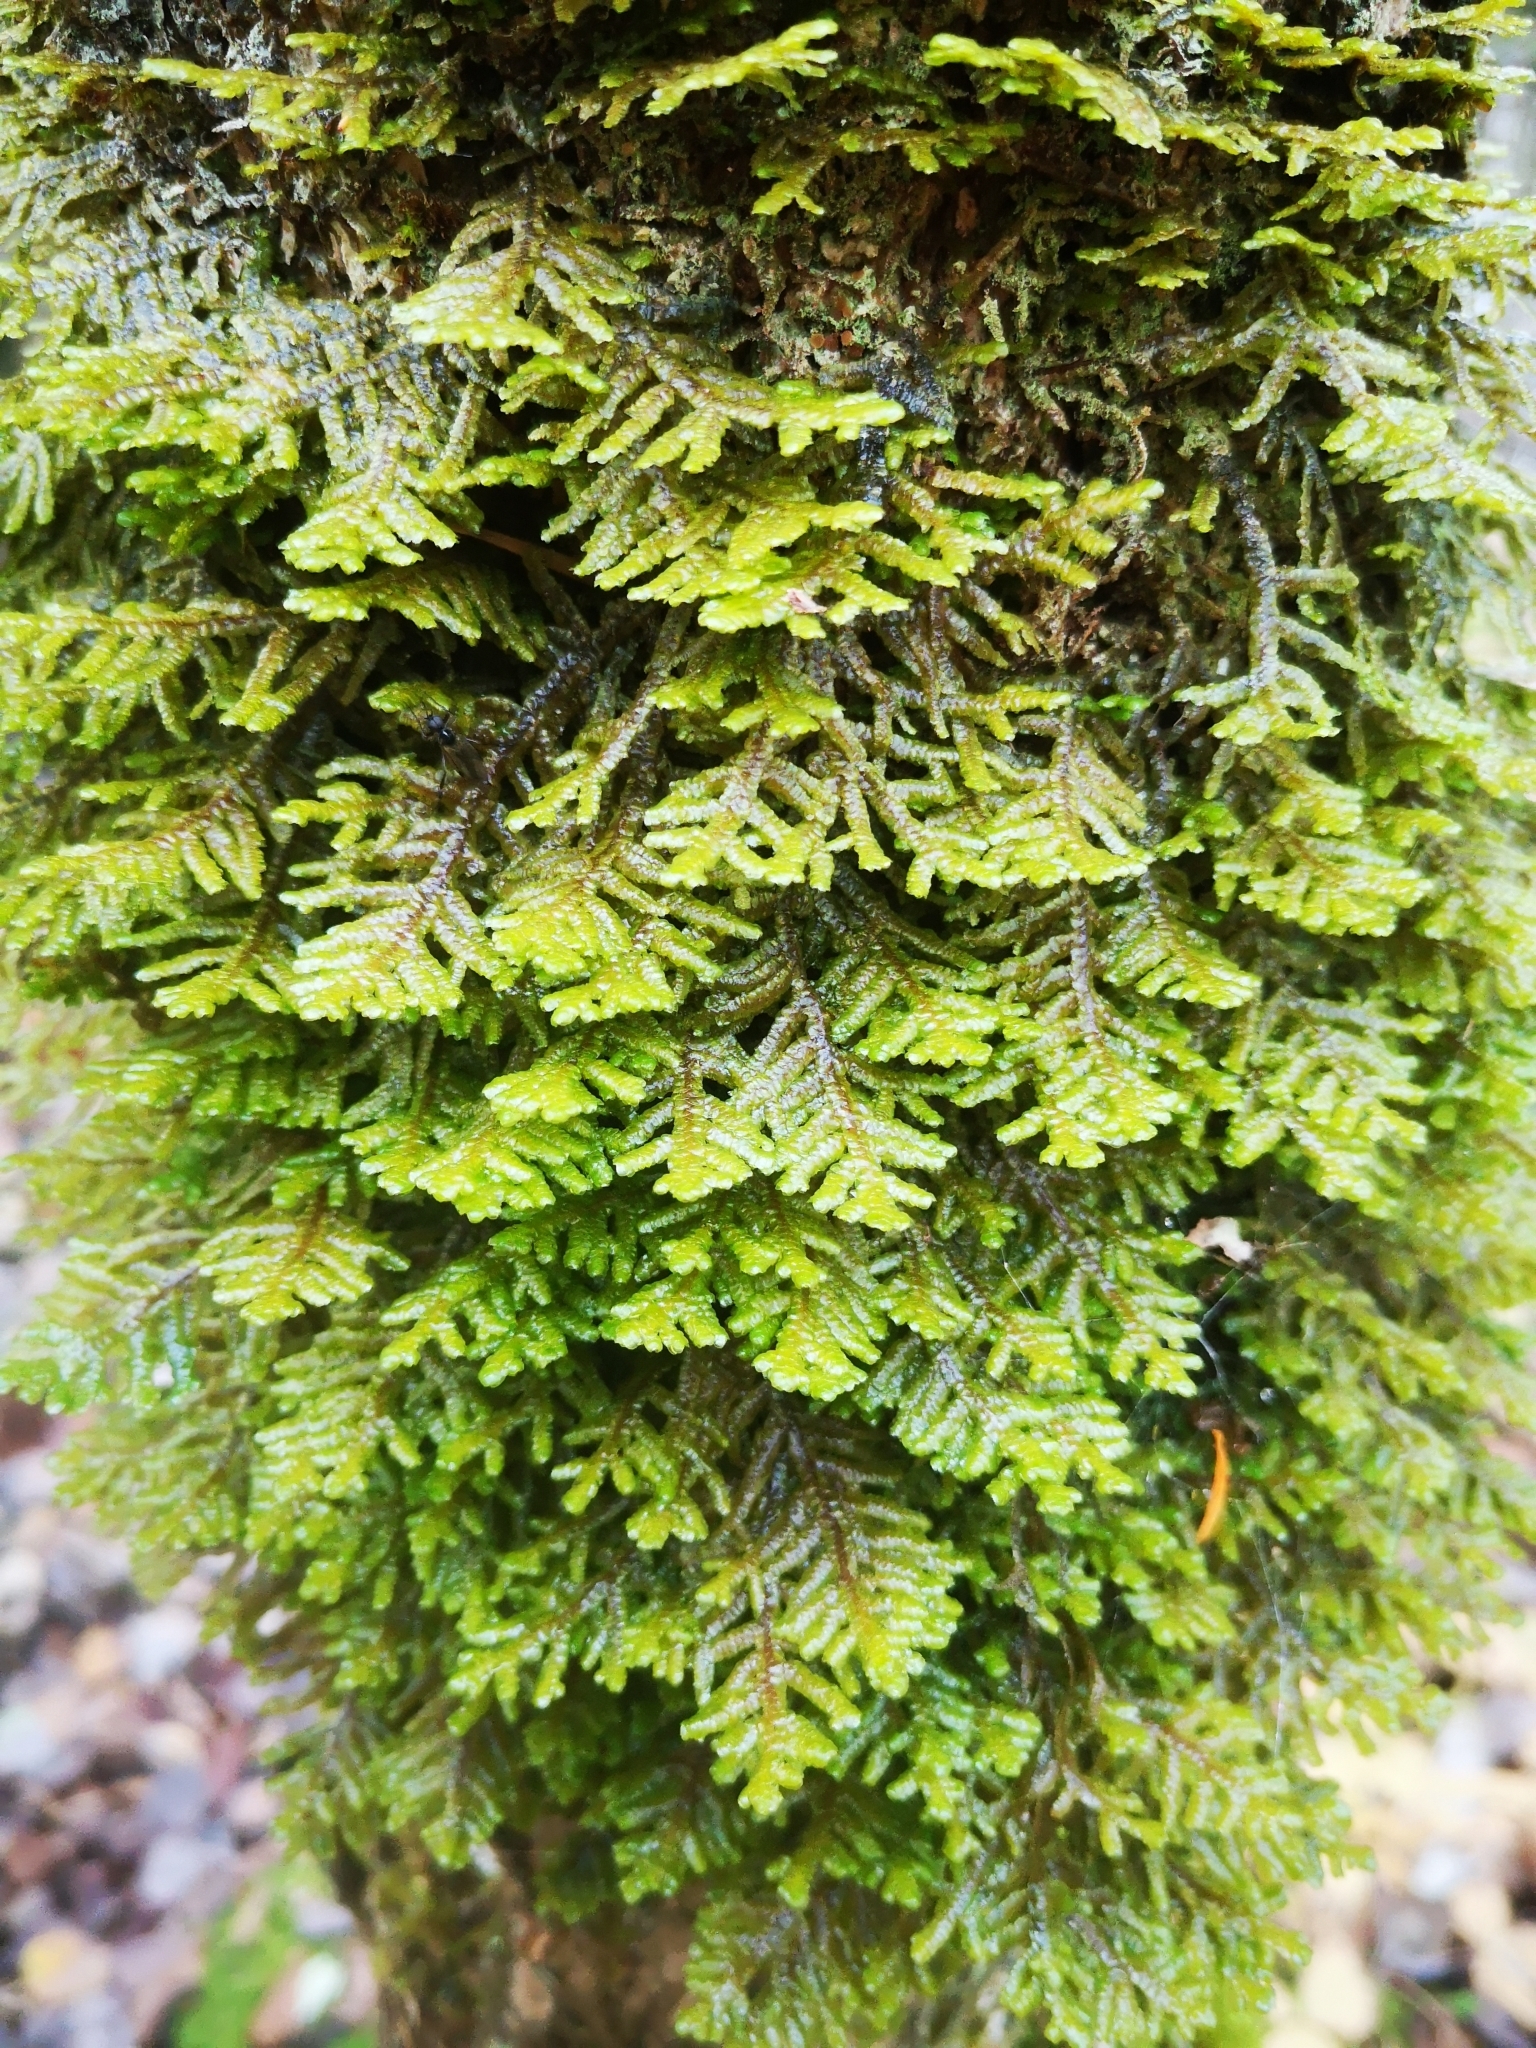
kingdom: Plantae
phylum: Marchantiophyta
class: Jungermanniopsida
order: Porellales
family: Porellaceae
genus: Porella
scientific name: Porella platyphylla
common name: Wall scalewort
